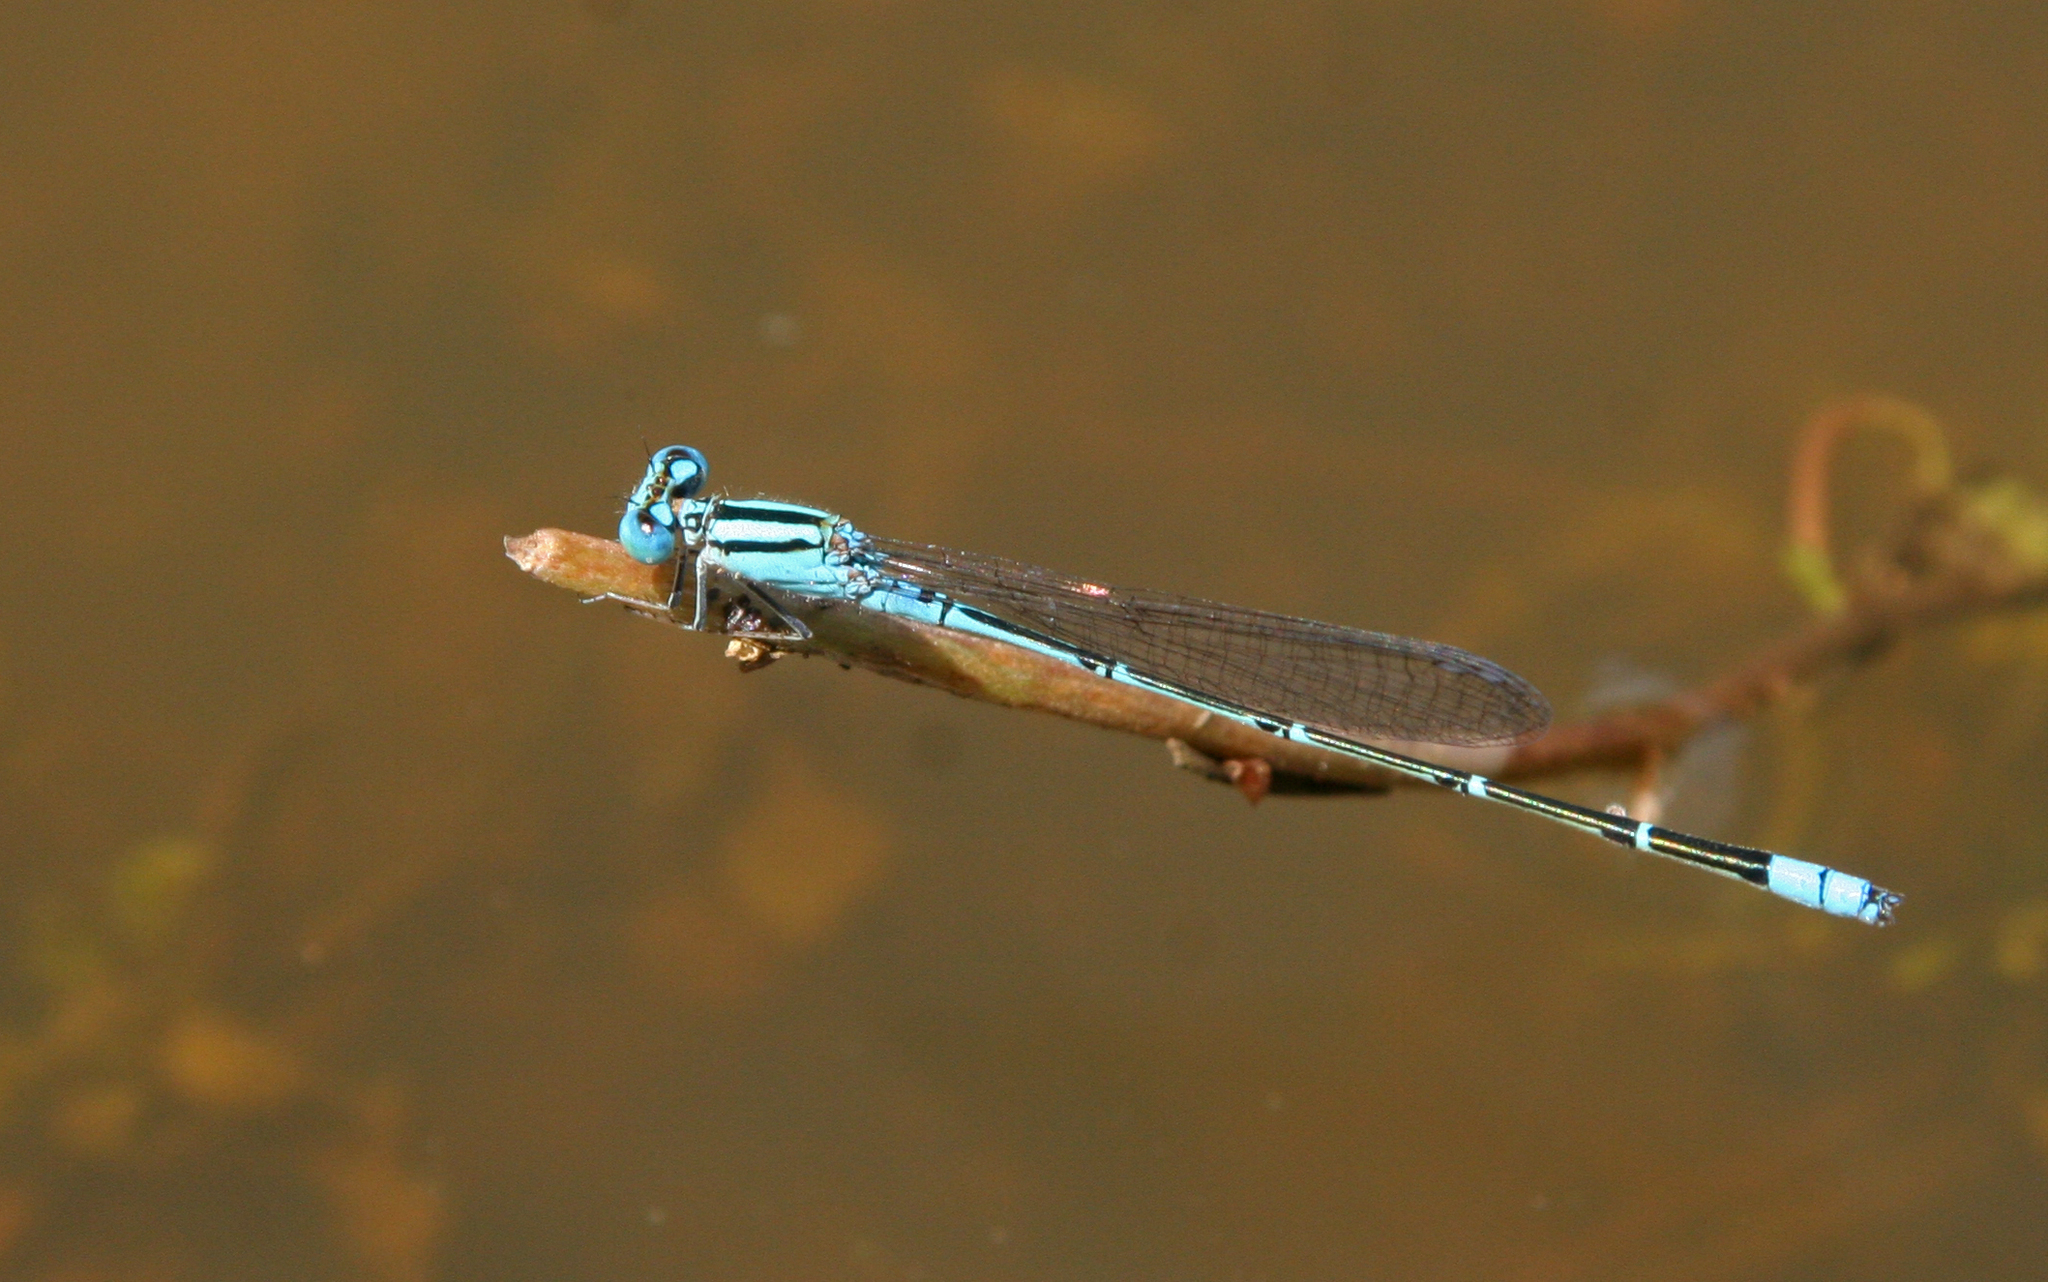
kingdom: Animalia
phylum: Arthropoda
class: Insecta
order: Odonata
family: Coenagrionidae
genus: Pseudagrion
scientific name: Pseudagrion microcephalum
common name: Blue riverdamsel
